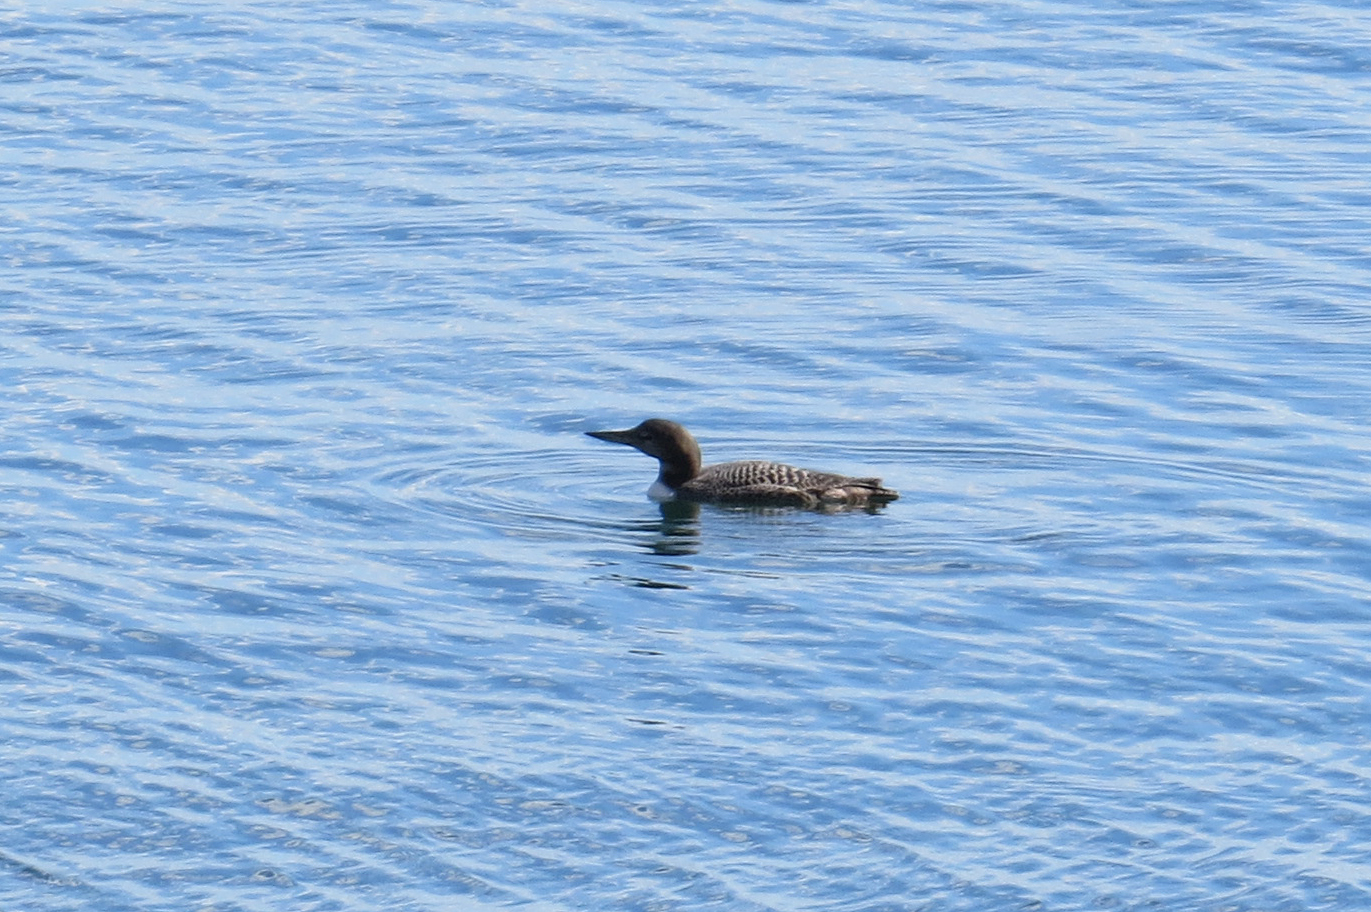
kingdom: Animalia
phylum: Chordata
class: Aves
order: Gaviiformes
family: Gaviidae
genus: Gavia
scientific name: Gavia immer
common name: Common loon
